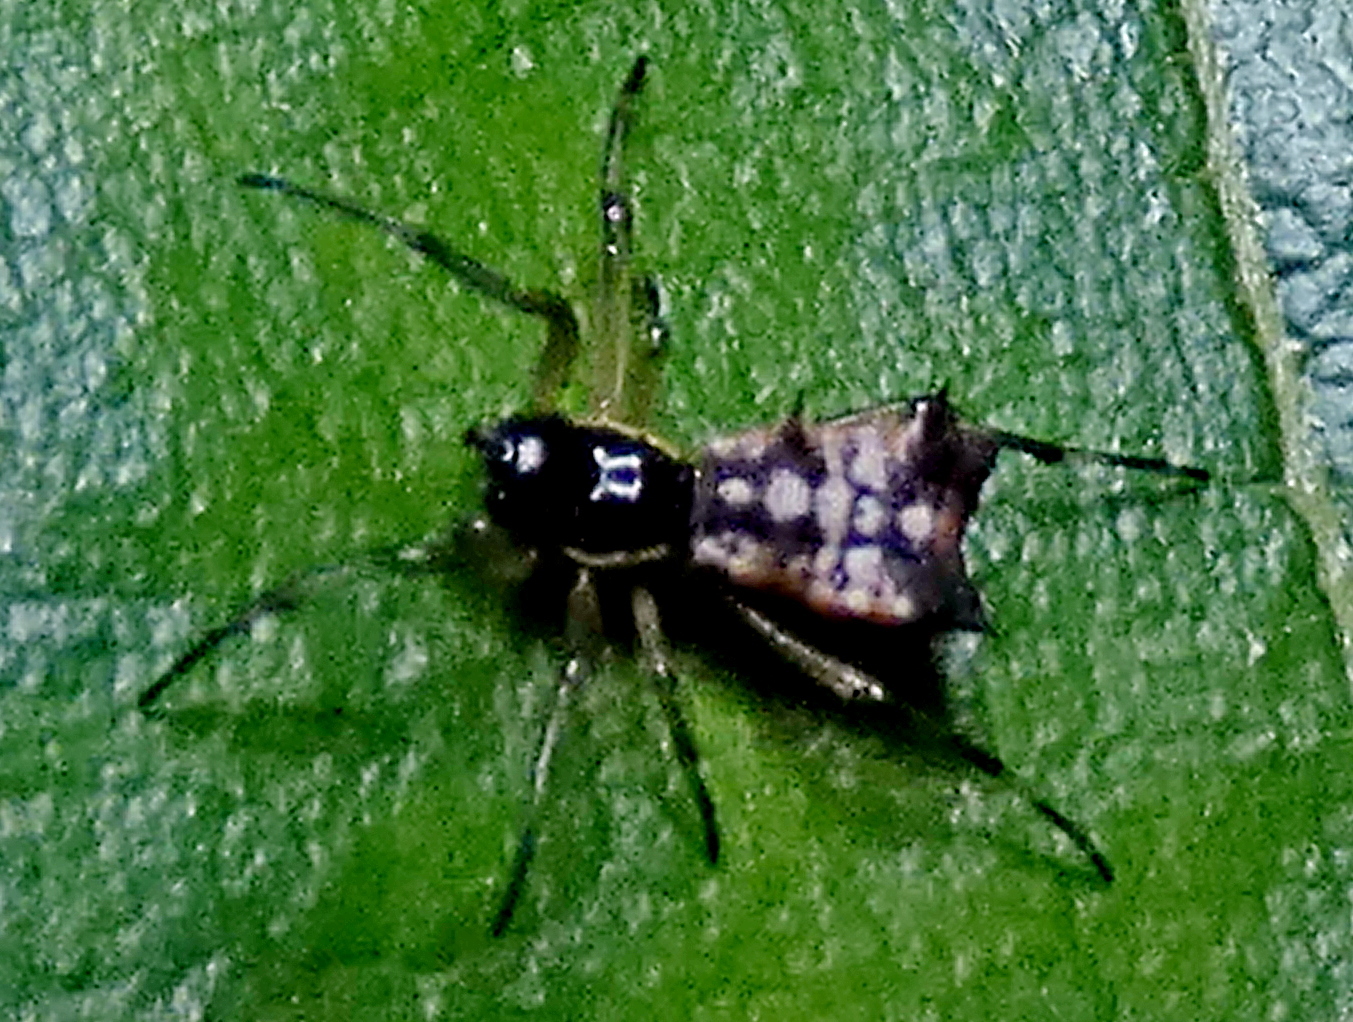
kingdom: Animalia
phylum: Arthropoda
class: Arachnida
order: Araneae
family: Araneidae
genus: Micrathena
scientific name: Micrathena picta
